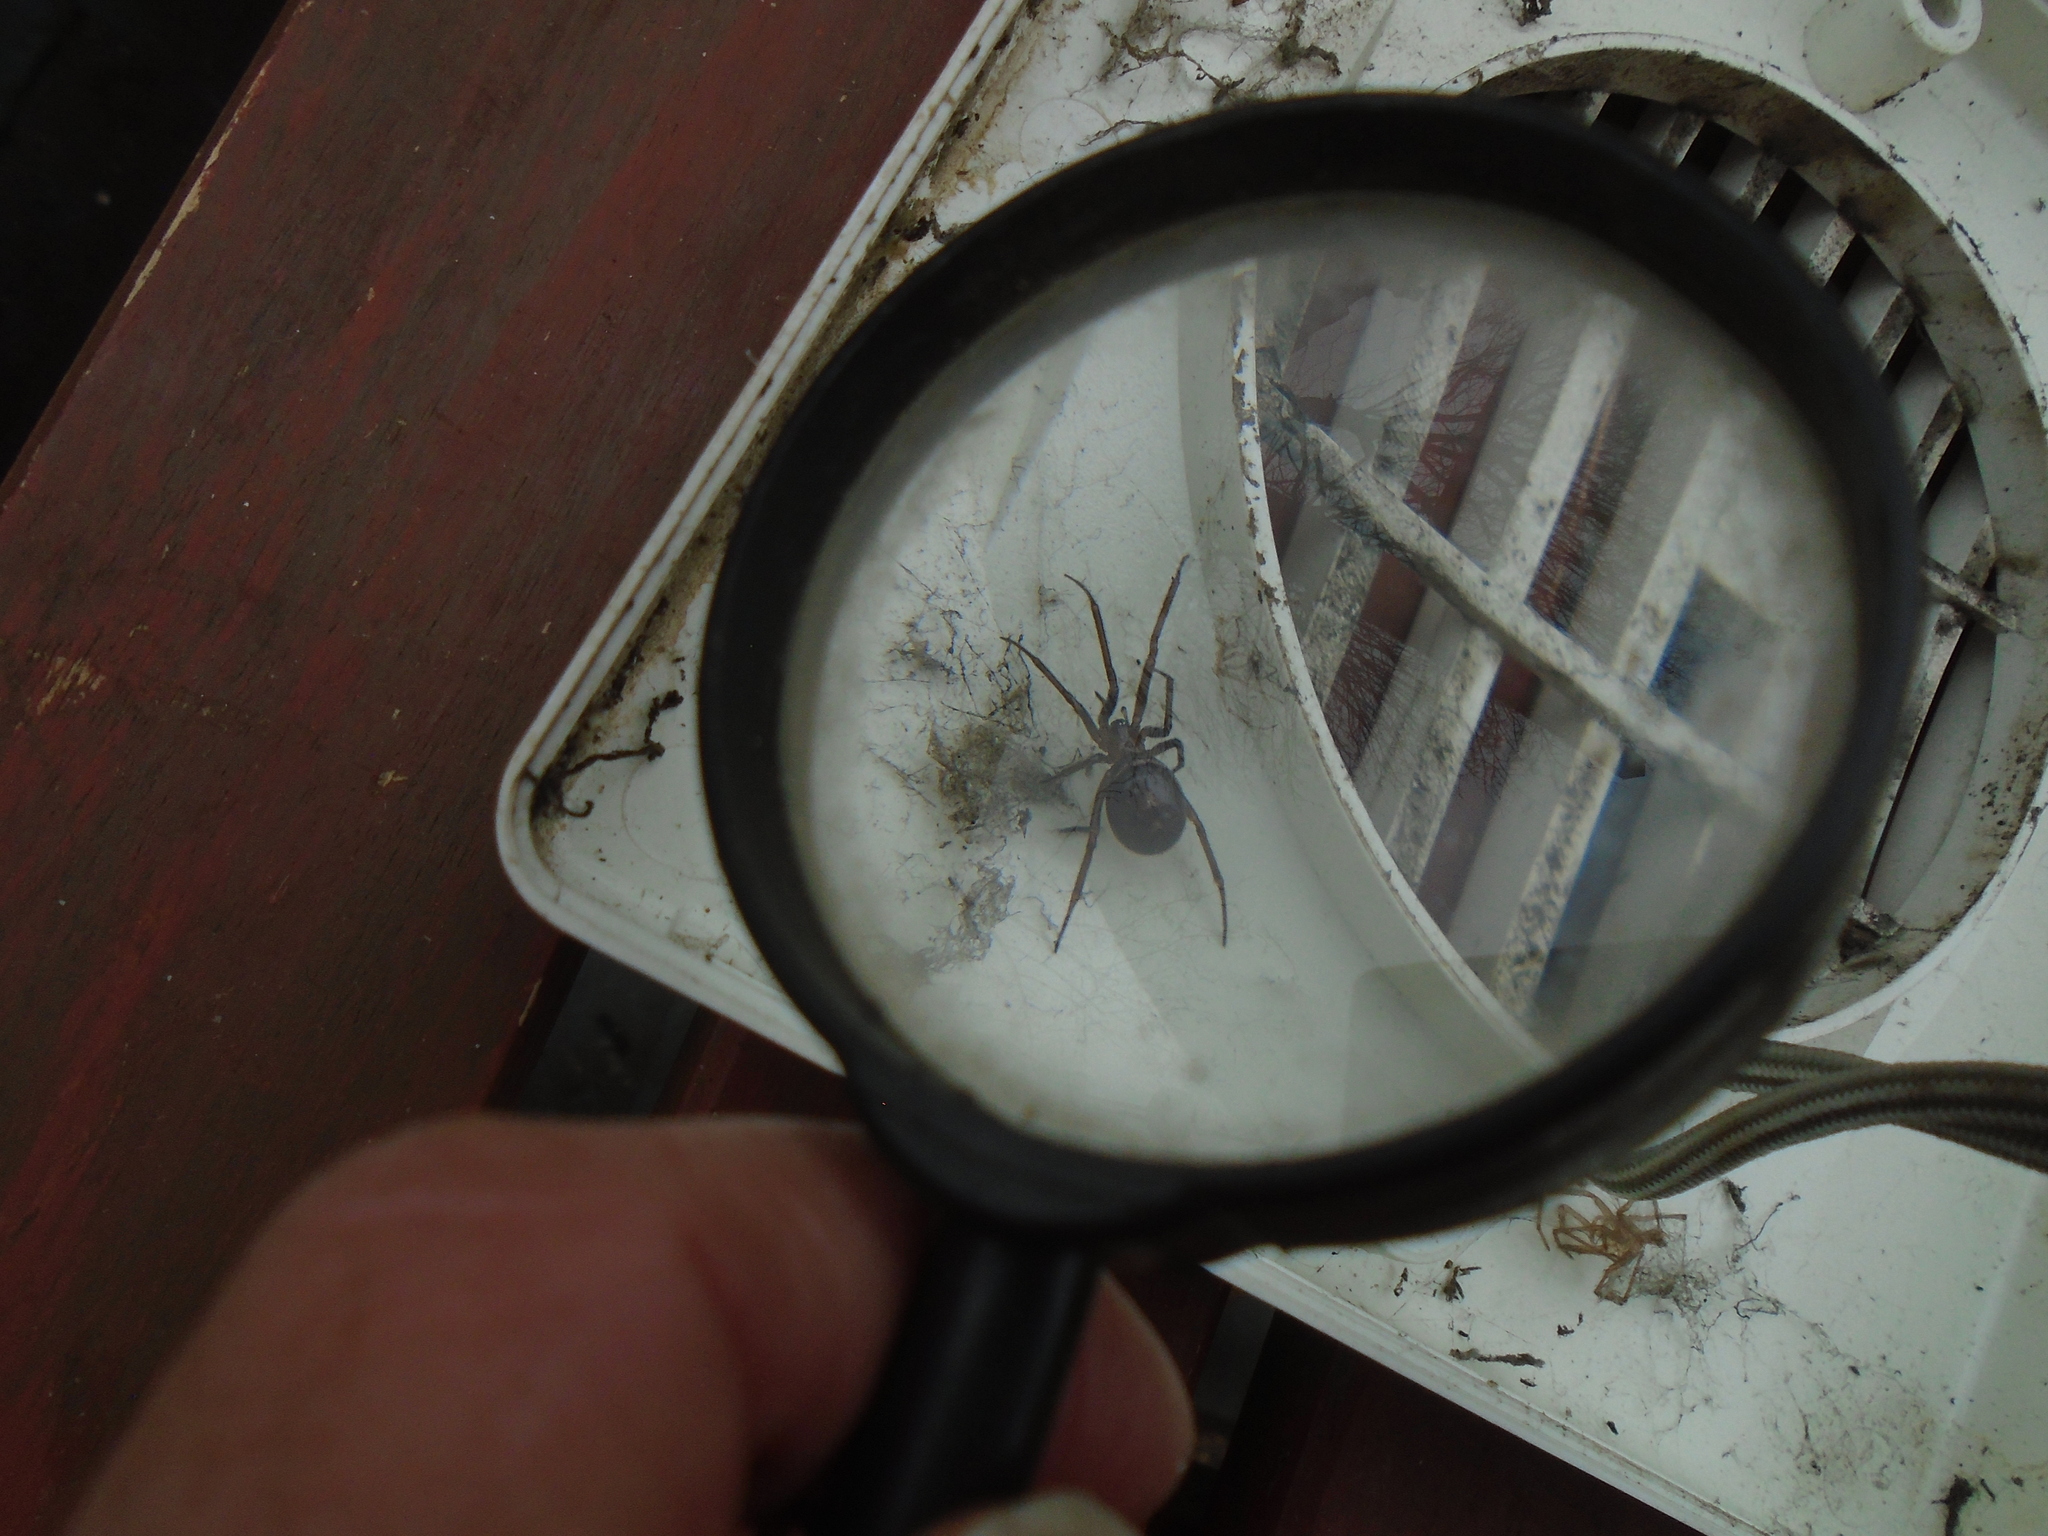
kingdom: Animalia
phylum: Arthropoda
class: Arachnida
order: Araneae
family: Theridiidae
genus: Steatoda
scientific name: Steatoda grossa
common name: False black widow
